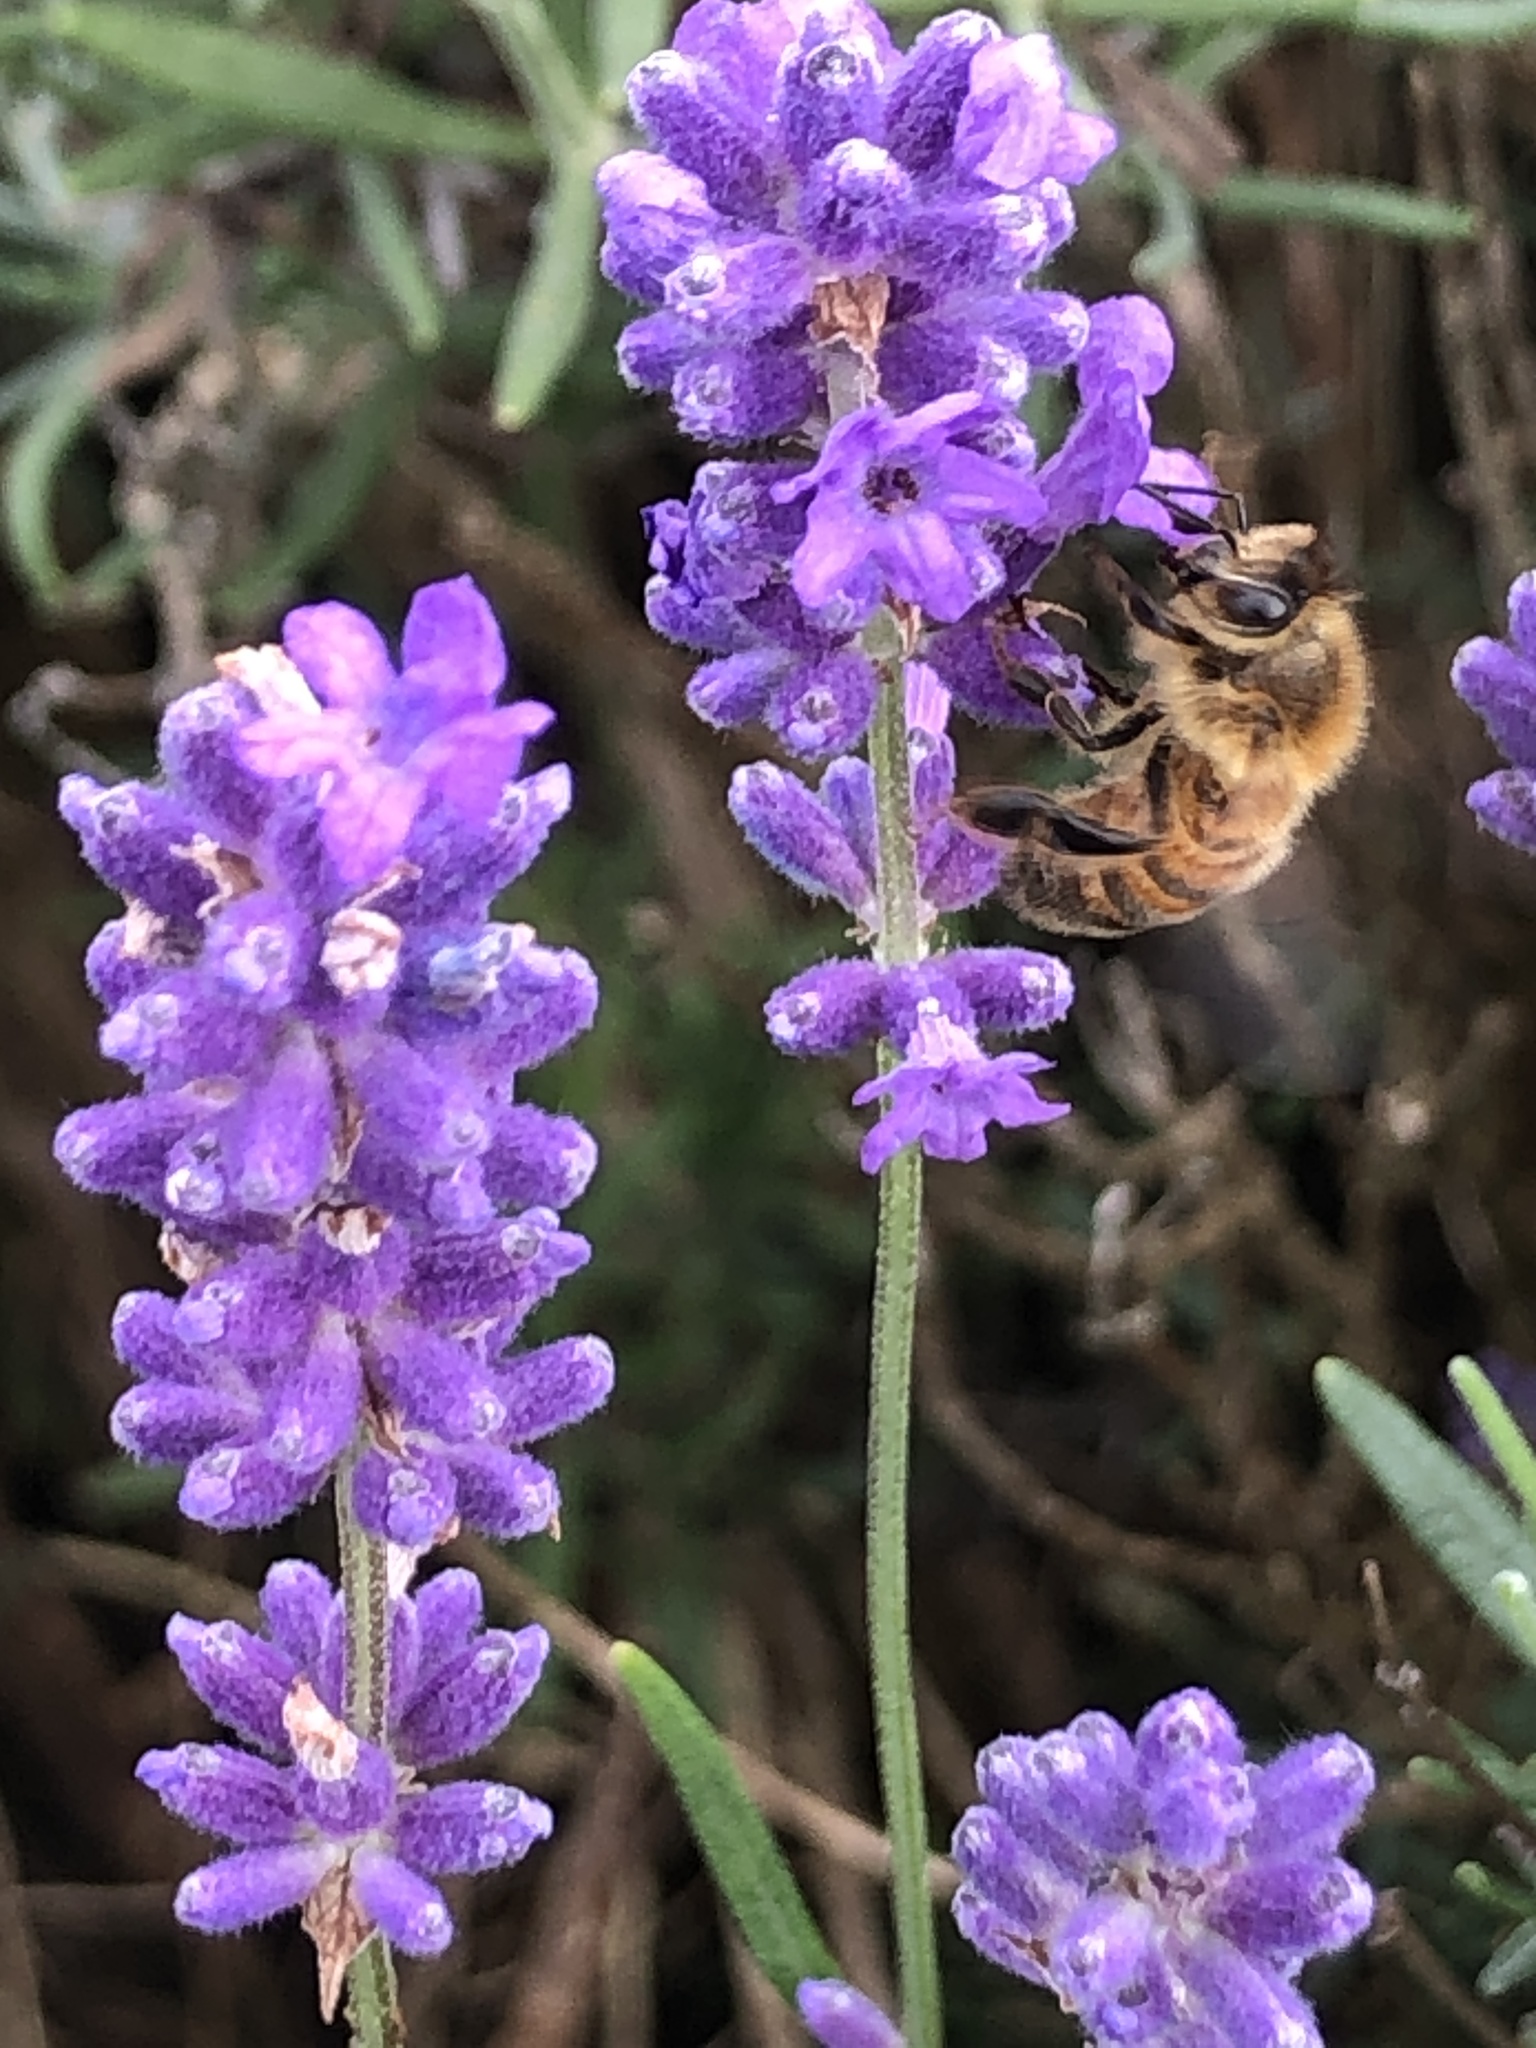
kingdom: Animalia
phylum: Arthropoda
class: Insecta
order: Hymenoptera
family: Apidae
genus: Apis
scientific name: Apis mellifera
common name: Honey bee
